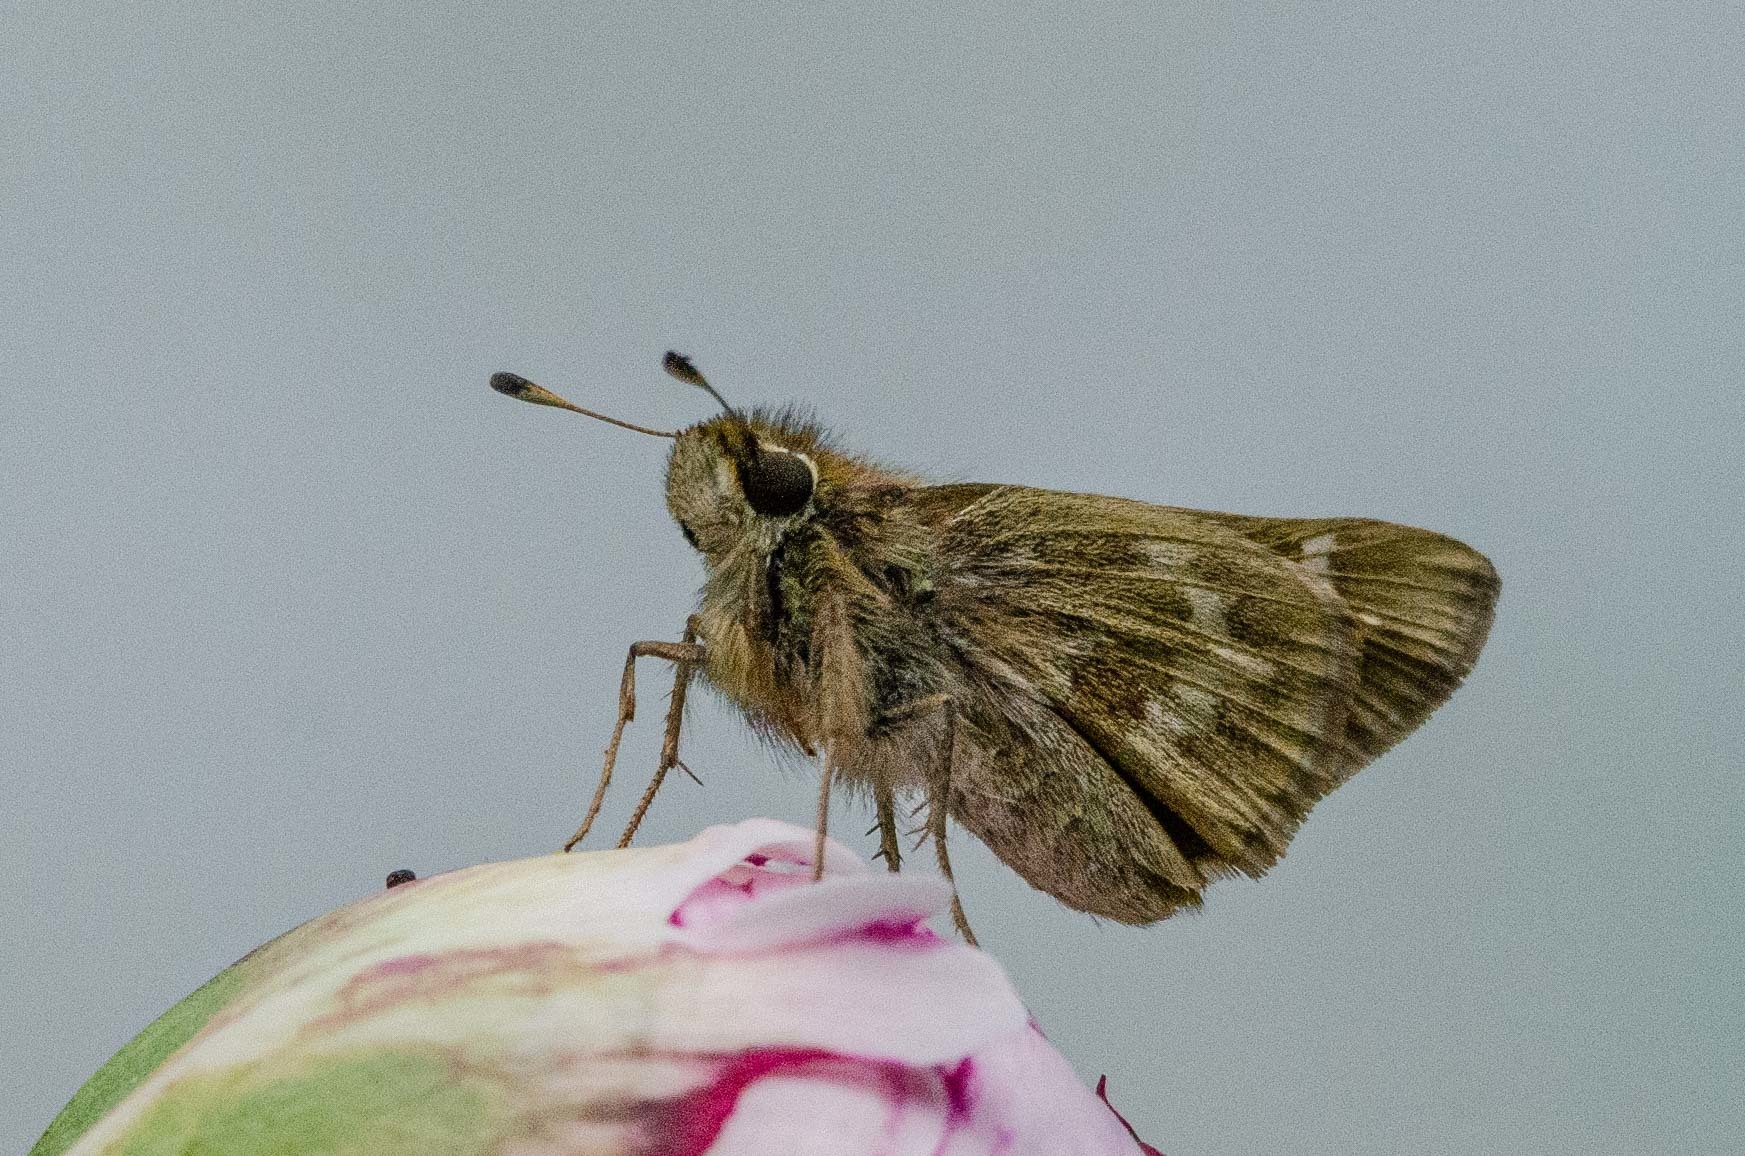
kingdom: Animalia
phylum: Arthropoda
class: Insecta
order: Lepidoptera
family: Hesperiidae
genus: Atalopedes
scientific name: Atalopedes
